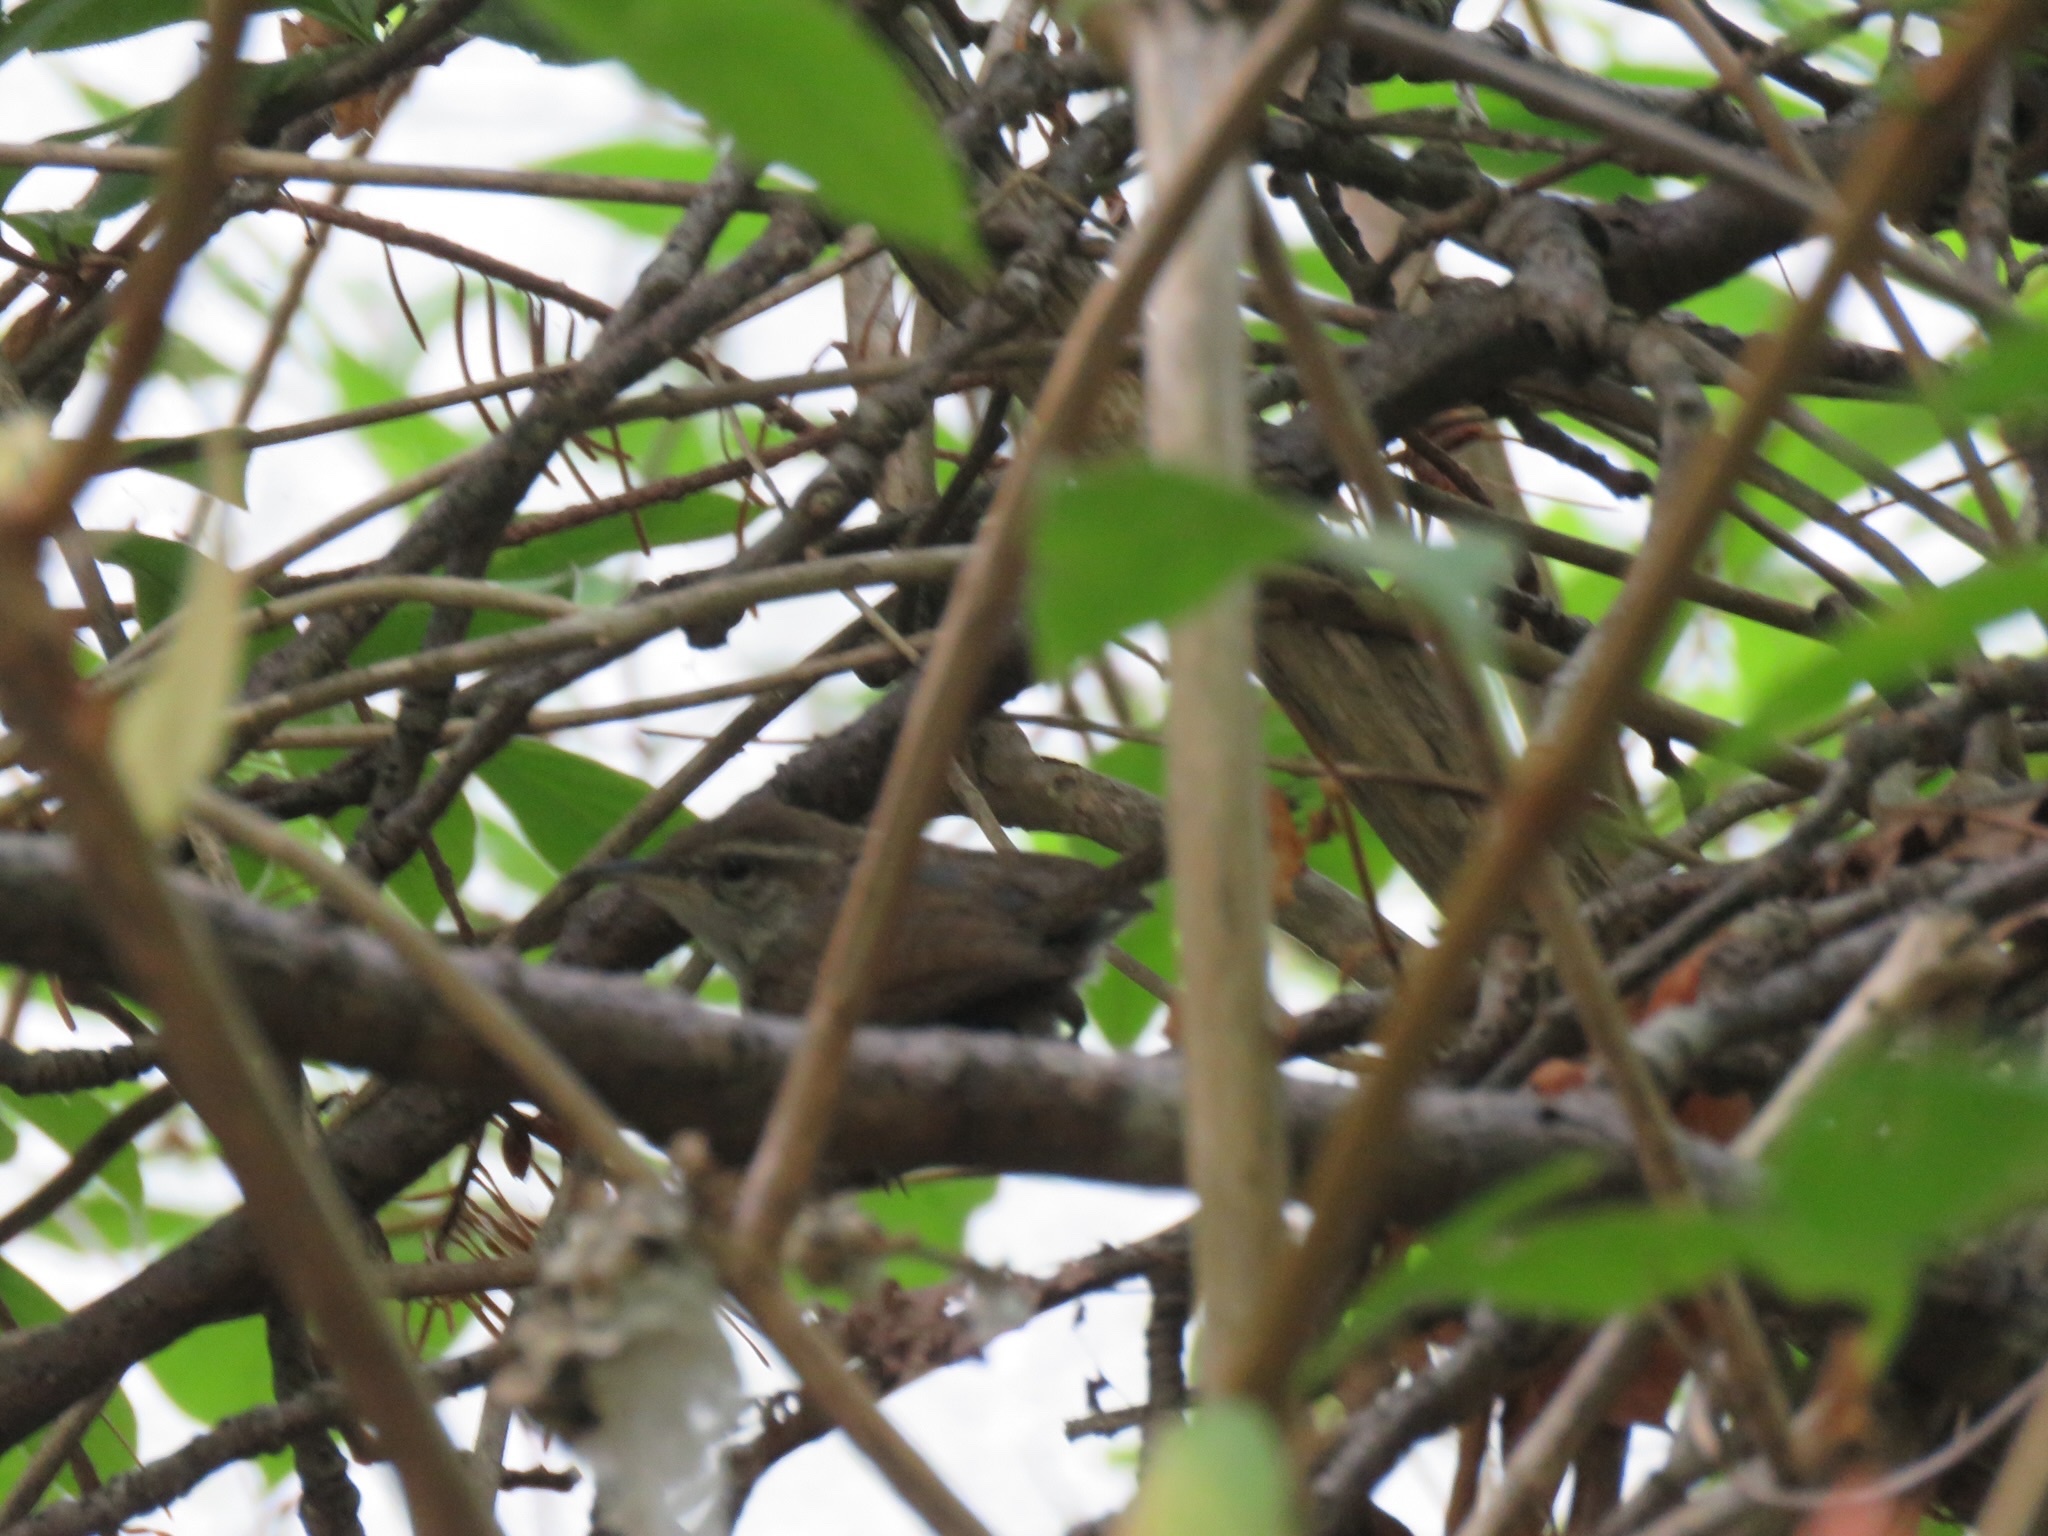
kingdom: Animalia
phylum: Chordata
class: Aves
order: Passeriformes
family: Troglodytidae
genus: Thryomanes
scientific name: Thryomanes bewickii
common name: Bewick's wren
